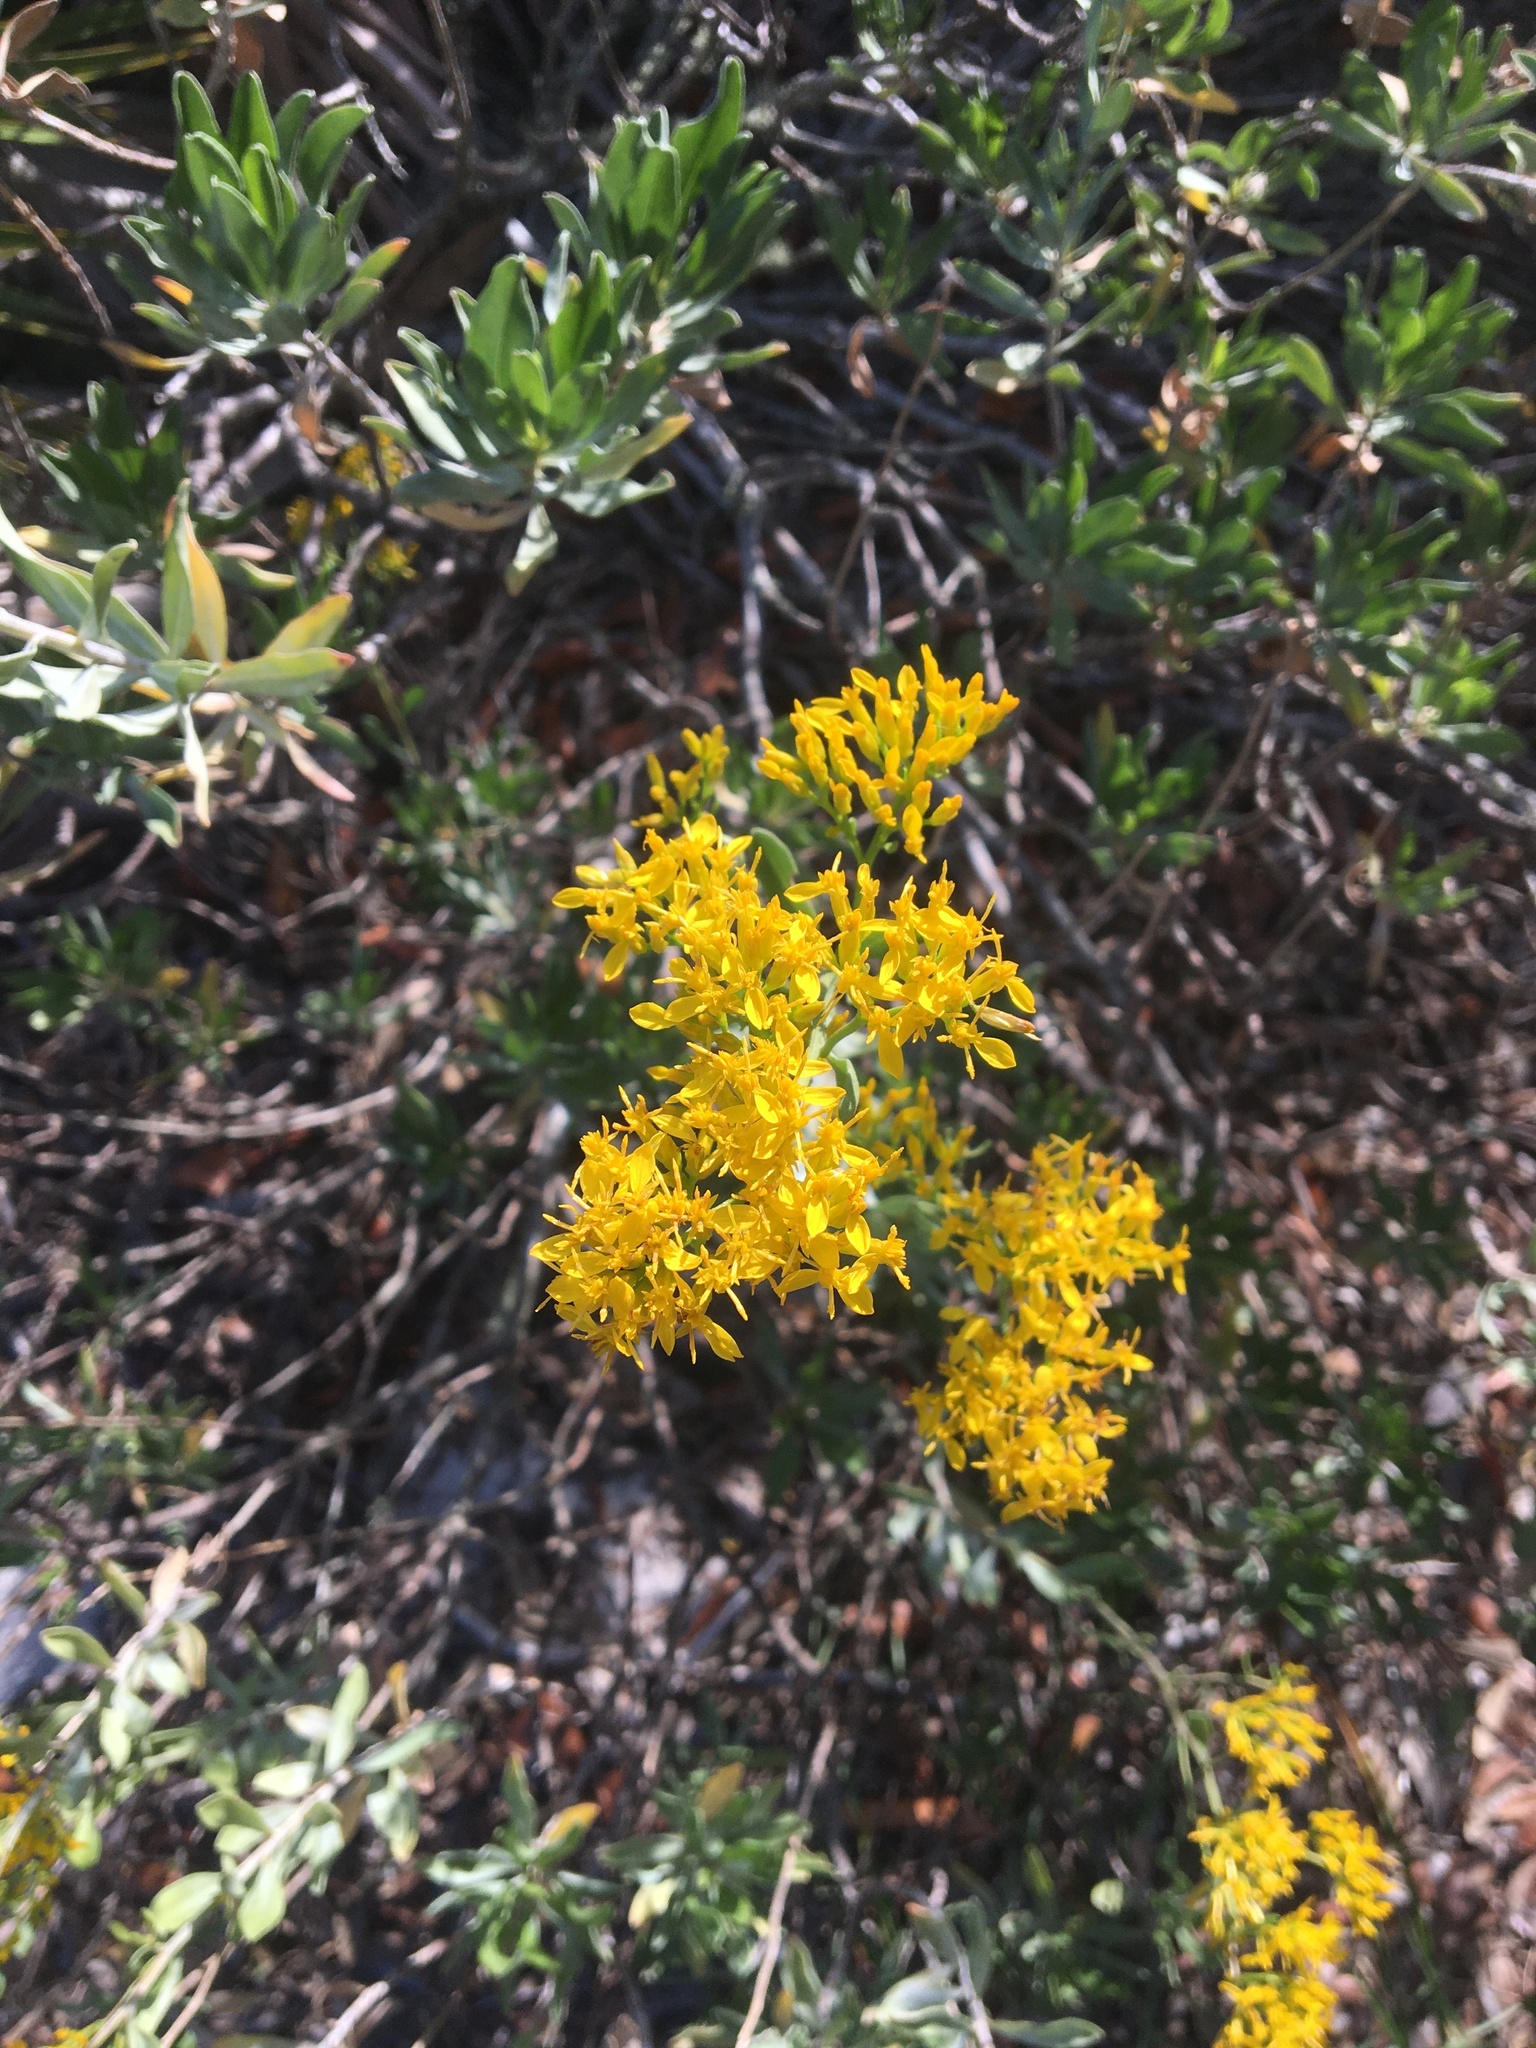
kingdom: Plantae
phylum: Tracheophyta
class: Magnoliopsida
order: Asterales
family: Asteraceae
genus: Chrysoma
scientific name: Chrysoma pauciflosculosa
